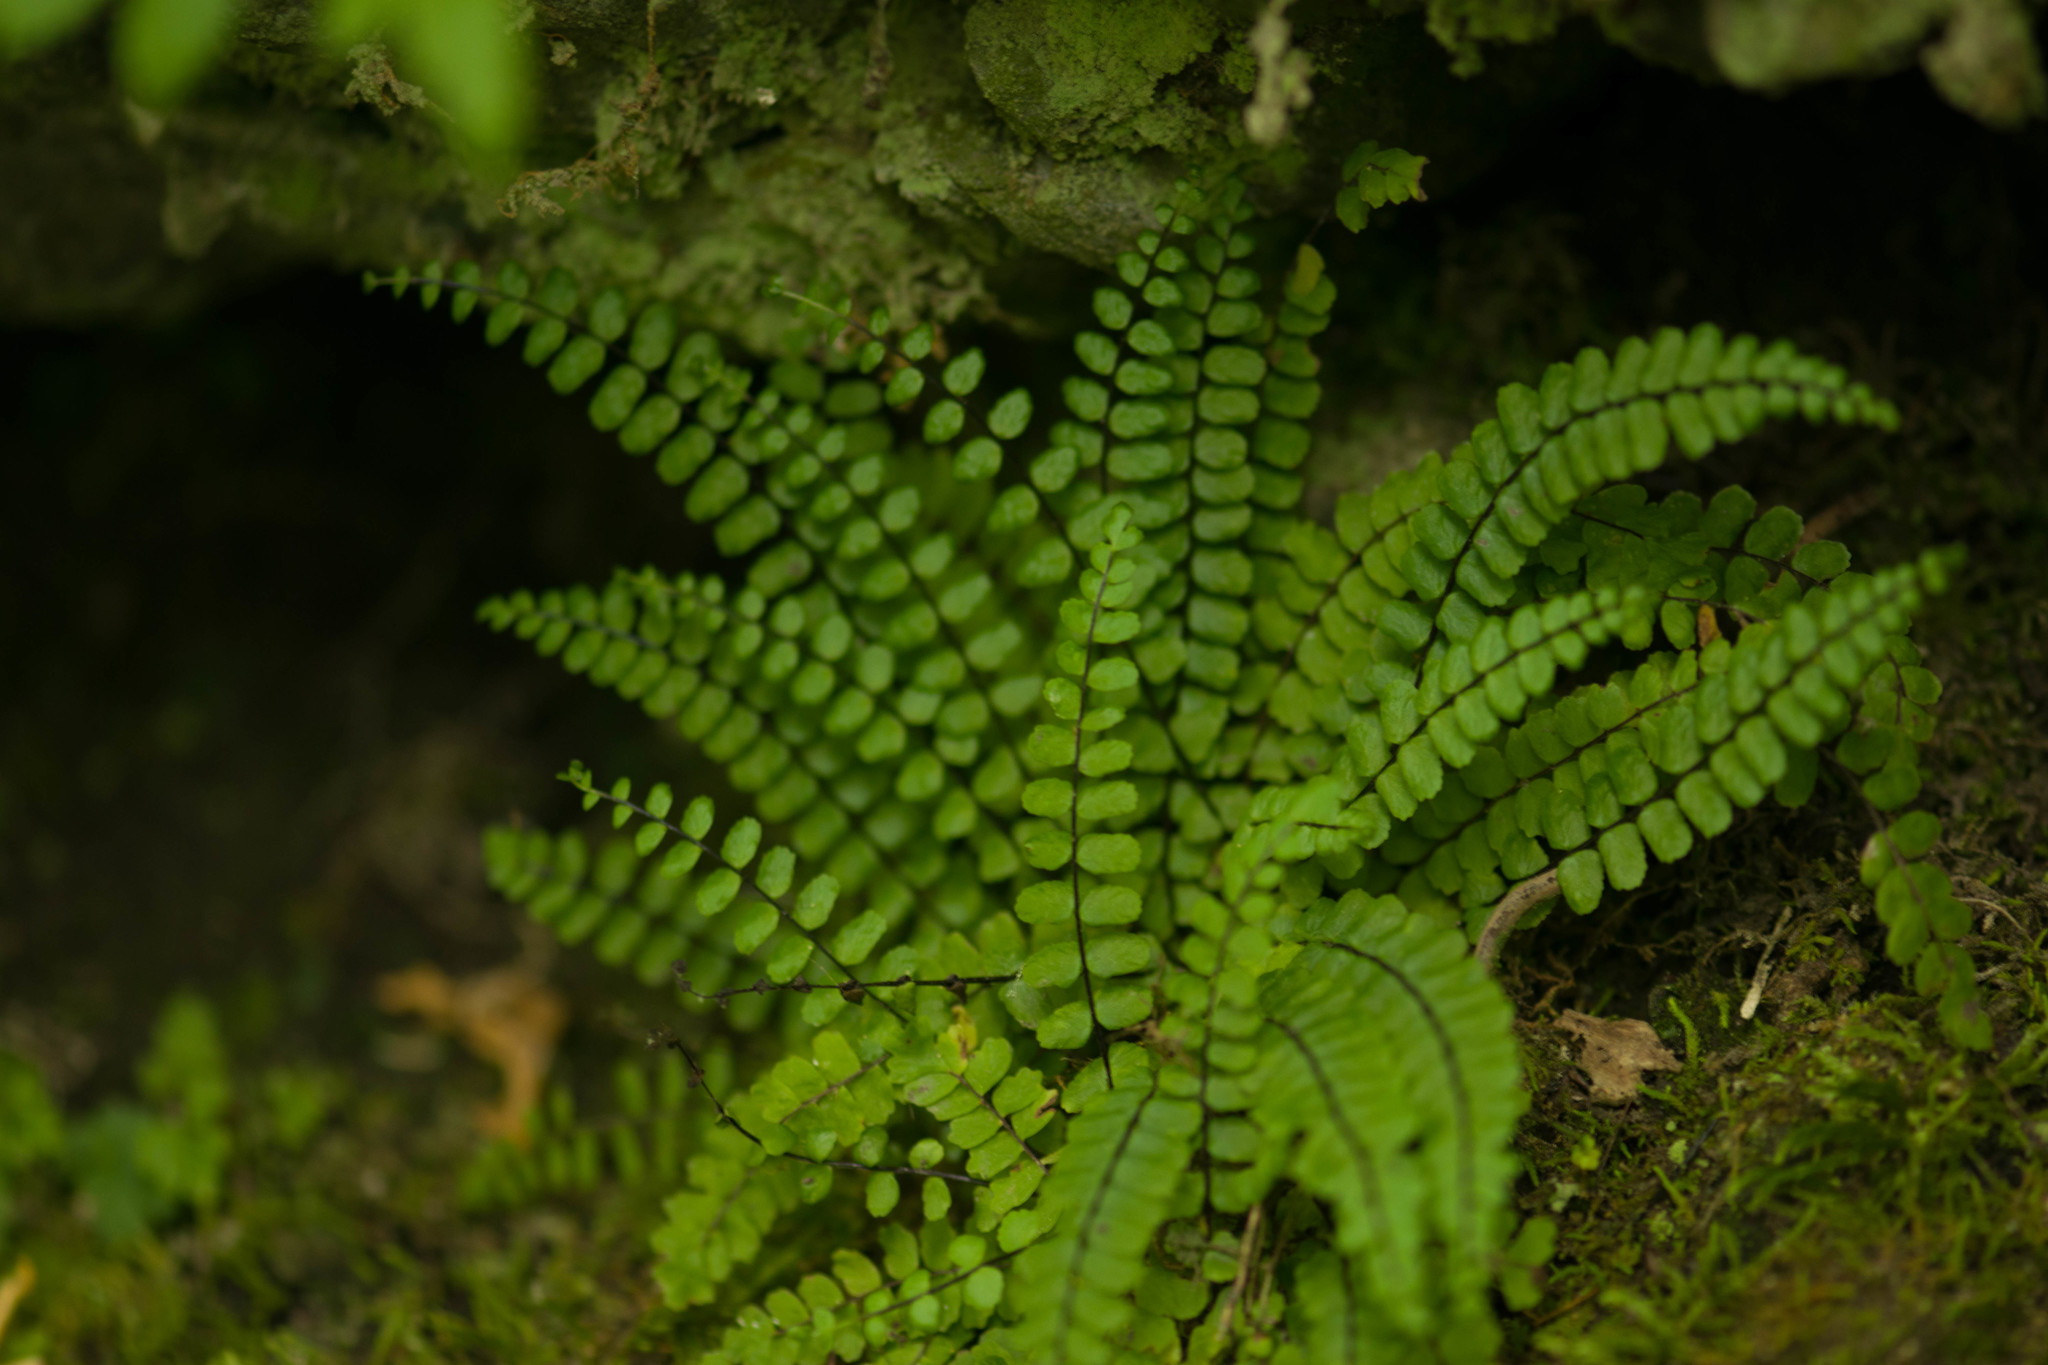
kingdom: Plantae
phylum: Tracheophyta
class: Polypodiopsida
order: Polypodiales
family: Aspleniaceae
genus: Asplenium
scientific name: Asplenium trichomanes
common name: Maidenhair spleenwort
